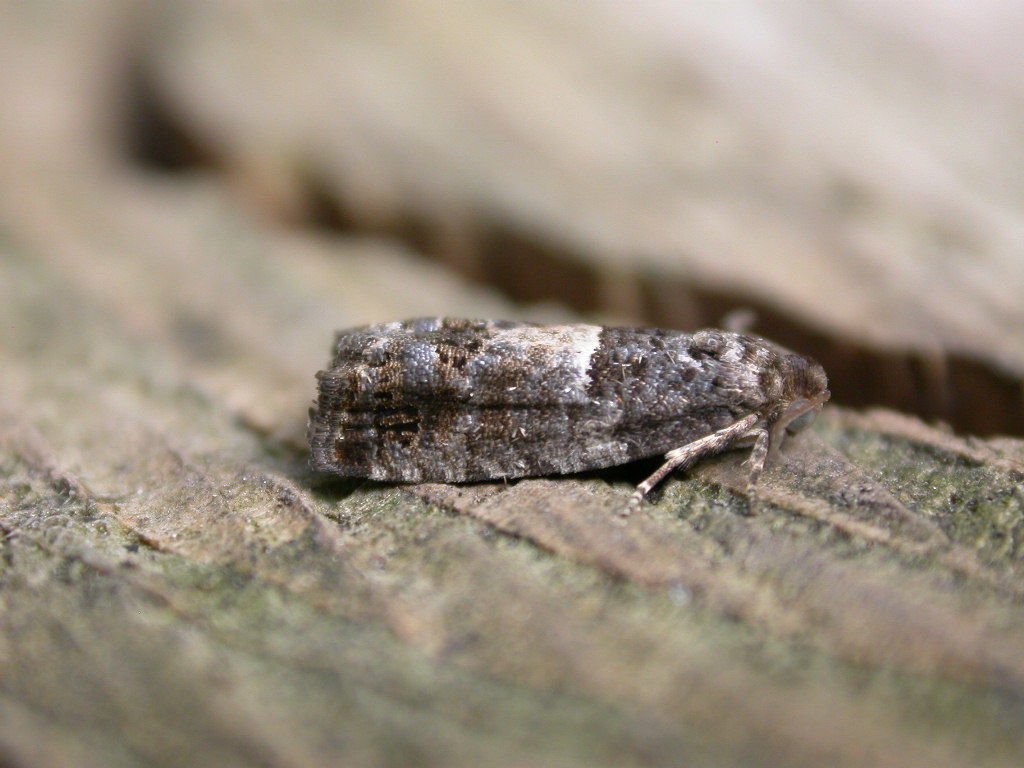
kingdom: Animalia
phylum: Arthropoda
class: Insecta
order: Lepidoptera
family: Tortricidae
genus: Spilonota
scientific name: Spilonota ocellana
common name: Bud moth
